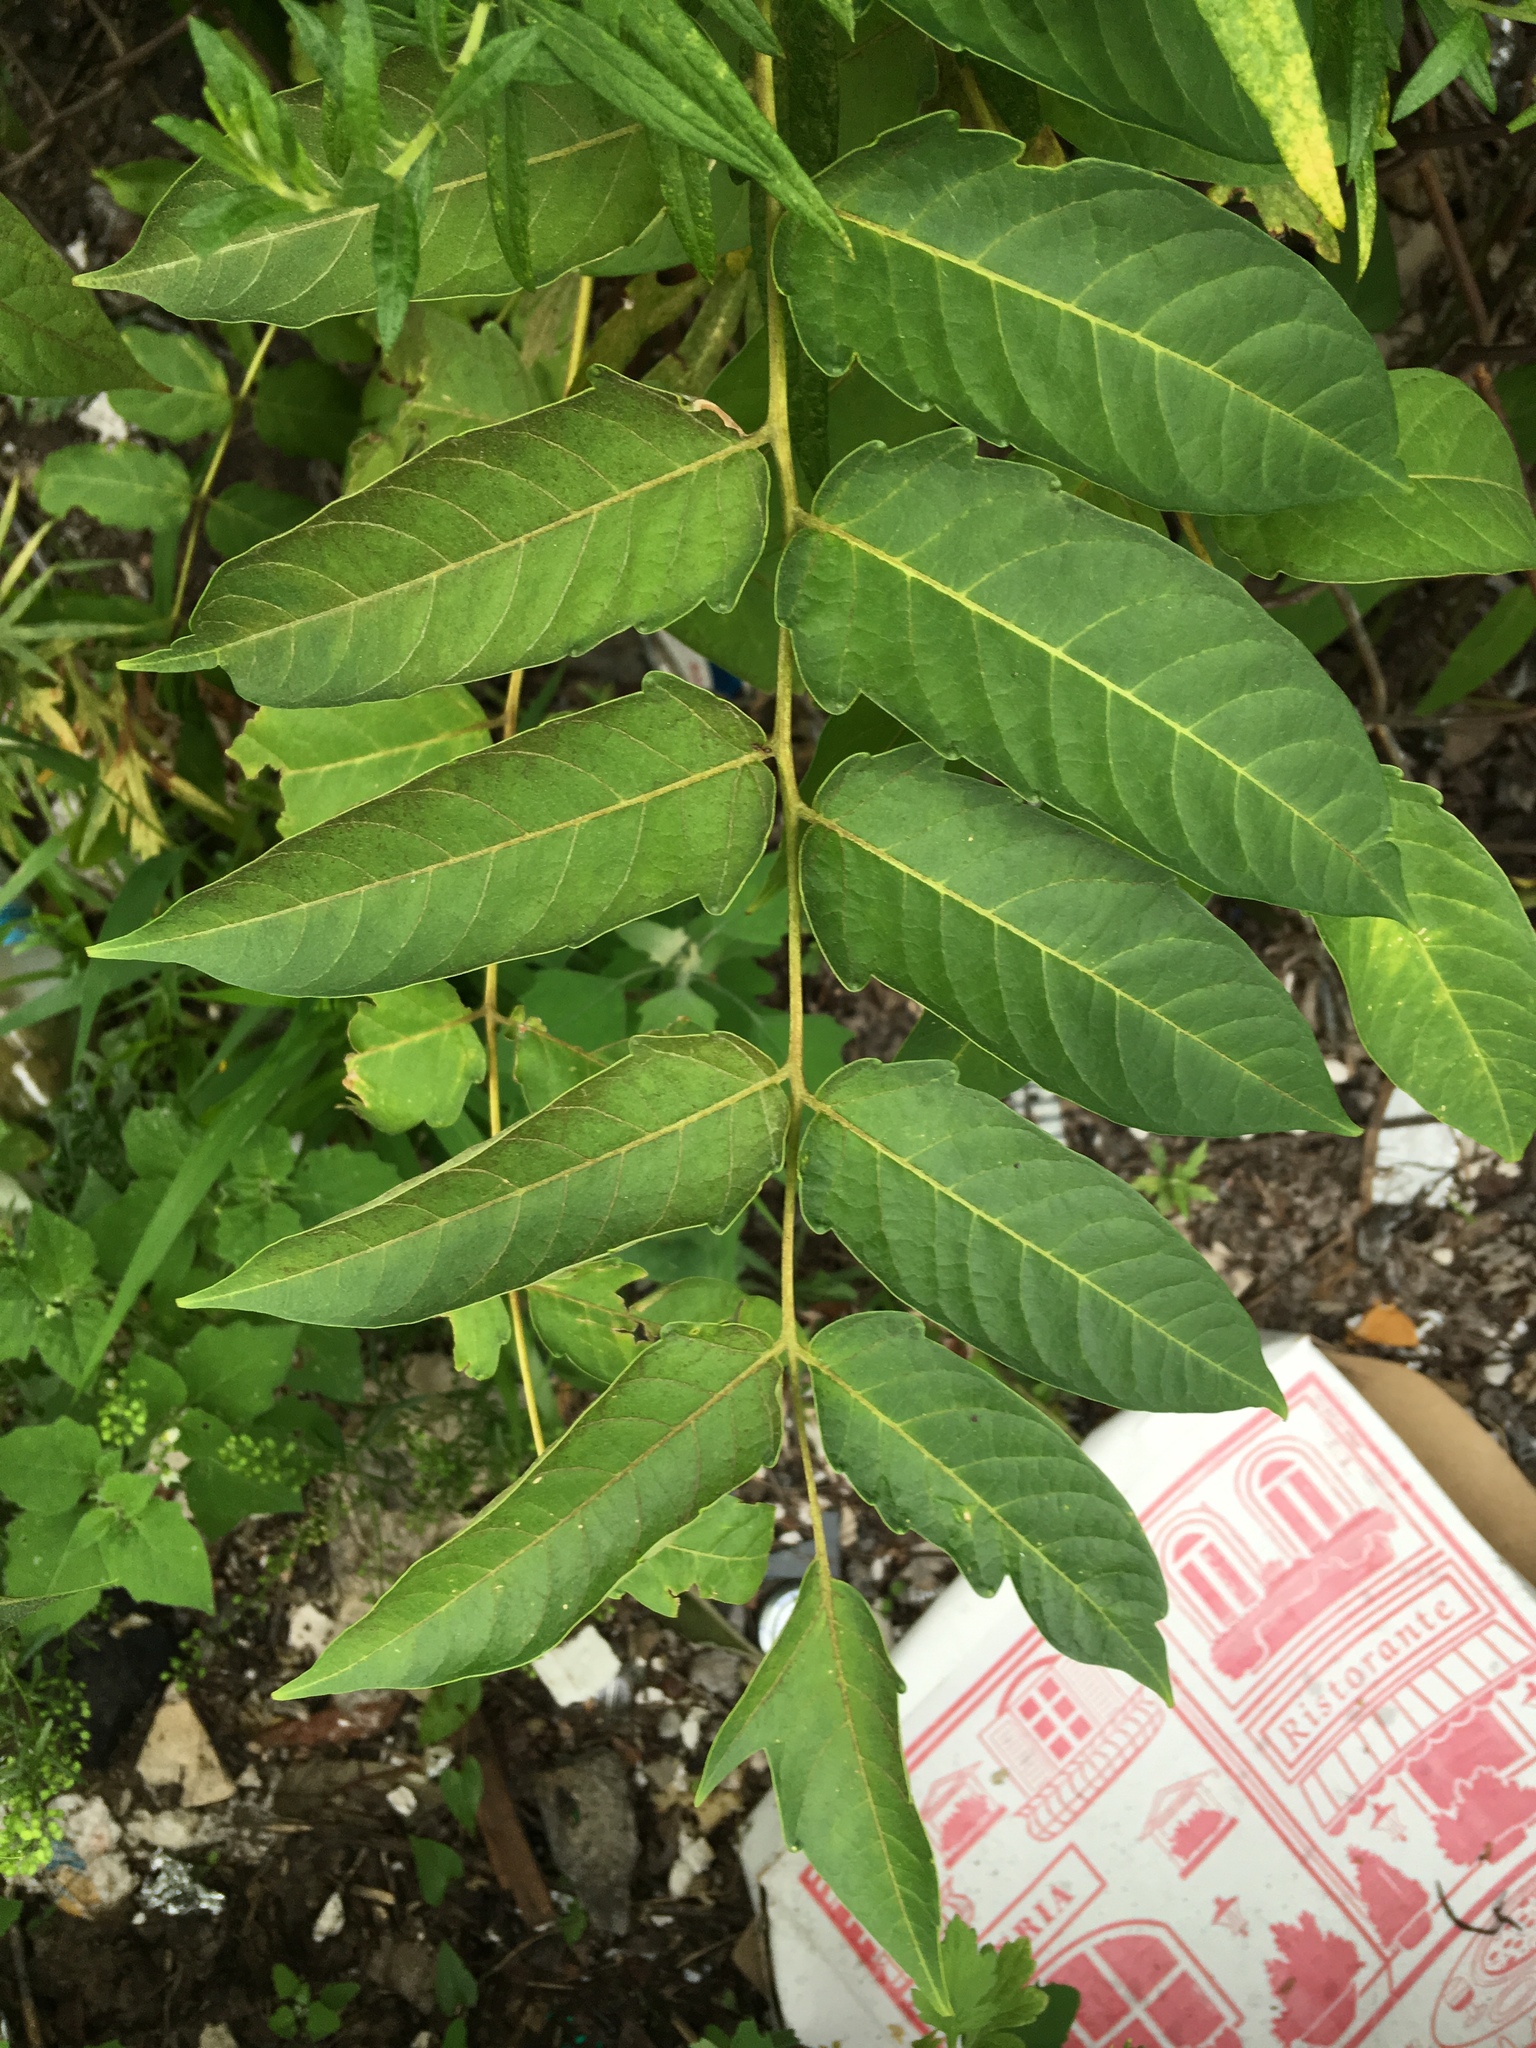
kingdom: Plantae
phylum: Tracheophyta
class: Magnoliopsida
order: Sapindales
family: Simaroubaceae
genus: Ailanthus
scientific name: Ailanthus altissima
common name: Tree-of-heaven
